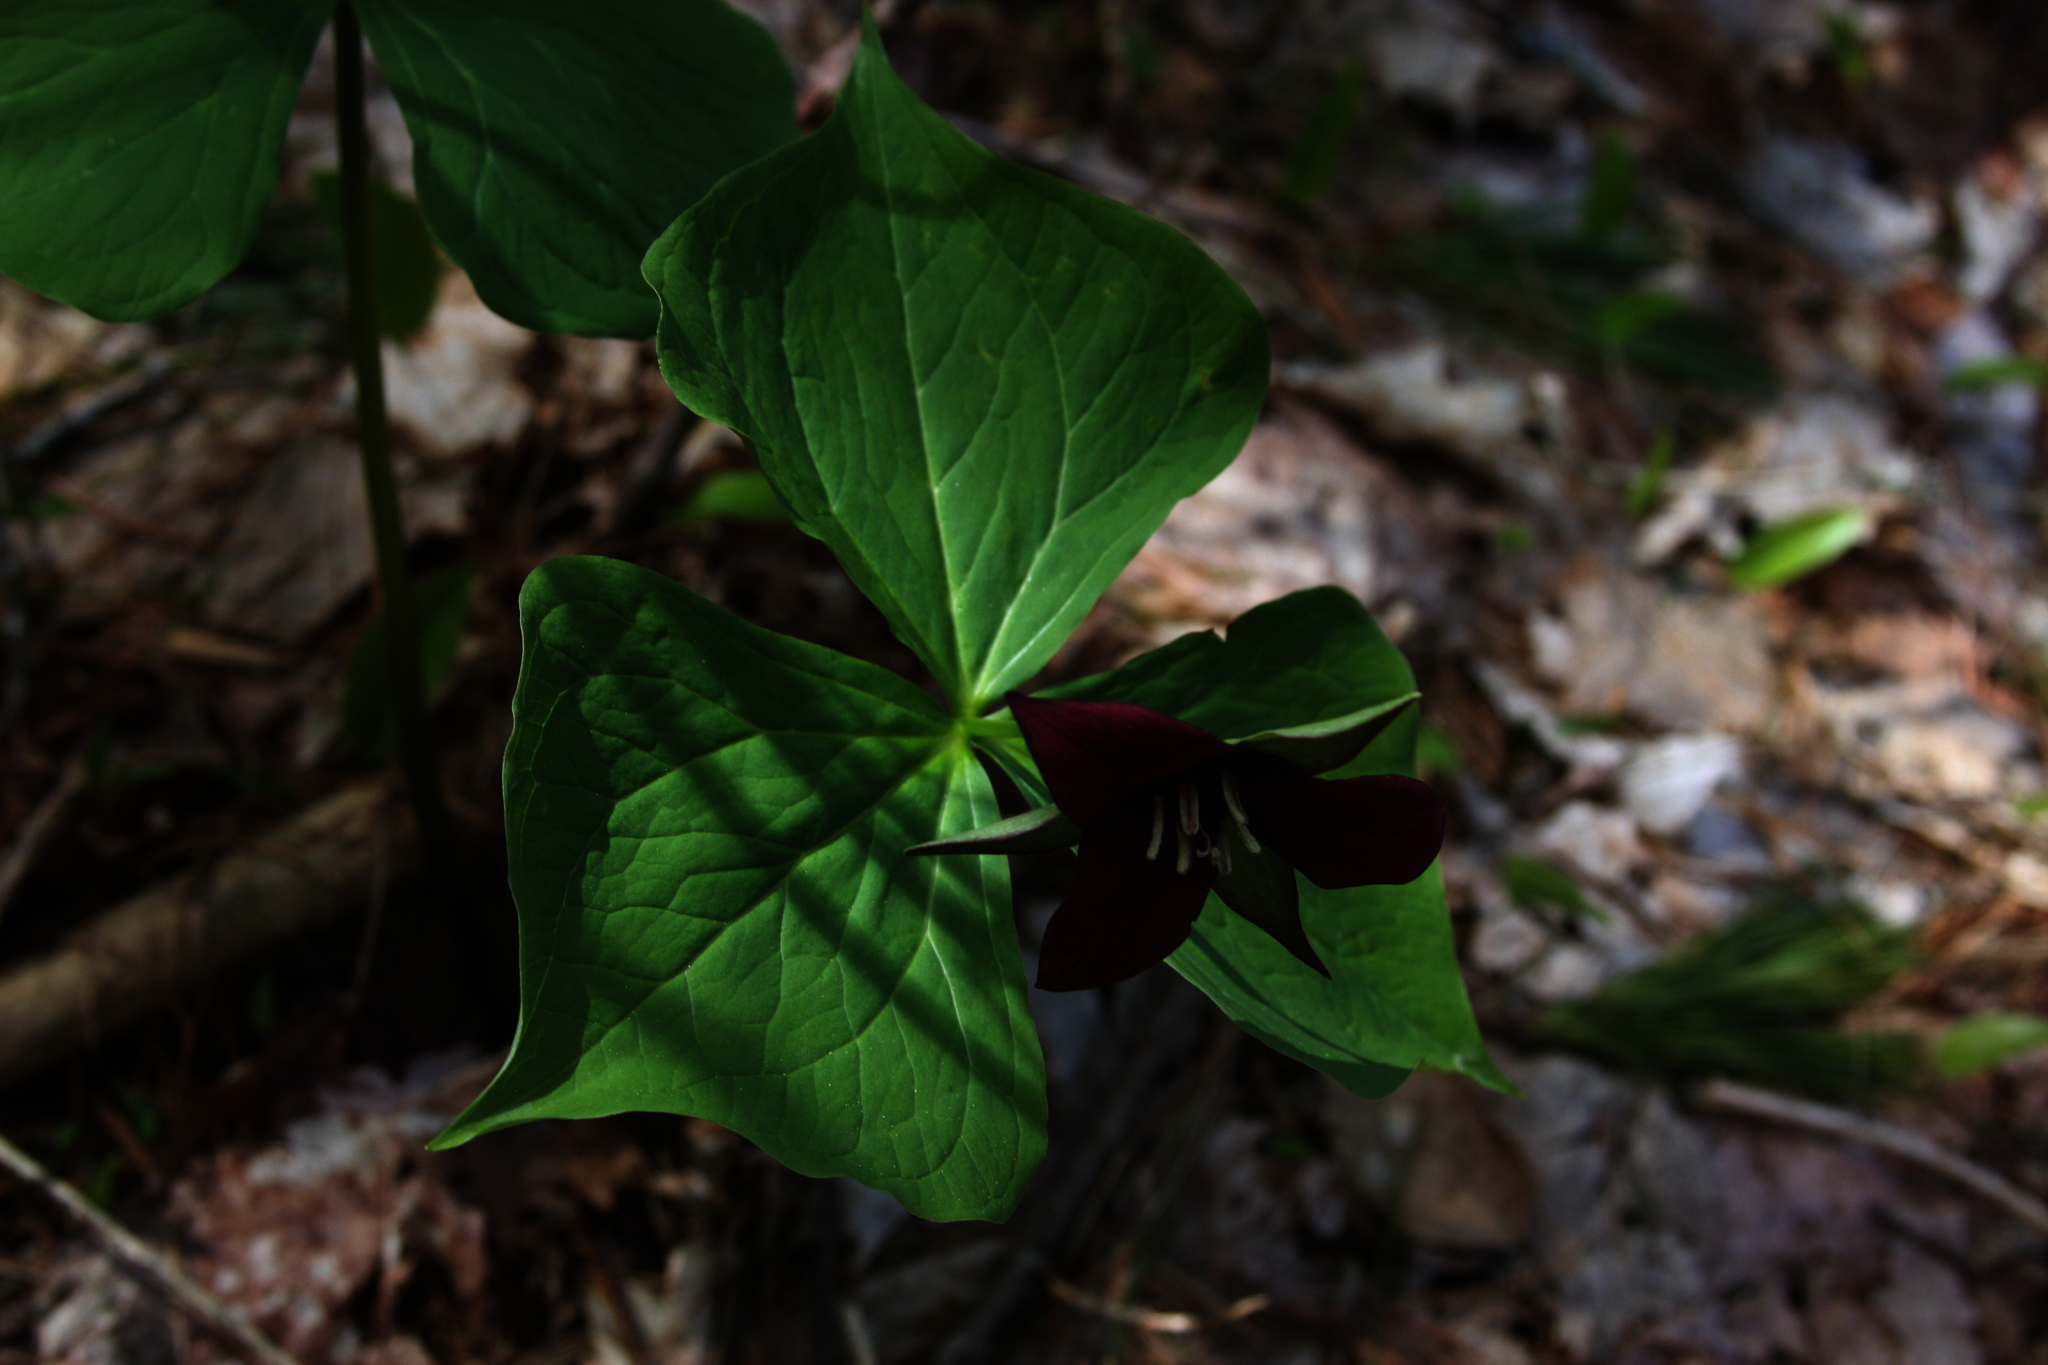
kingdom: Plantae
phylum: Tracheophyta
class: Liliopsida
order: Liliales
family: Melanthiaceae
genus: Trillium
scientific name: Trillium erectum
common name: Purple trillium
